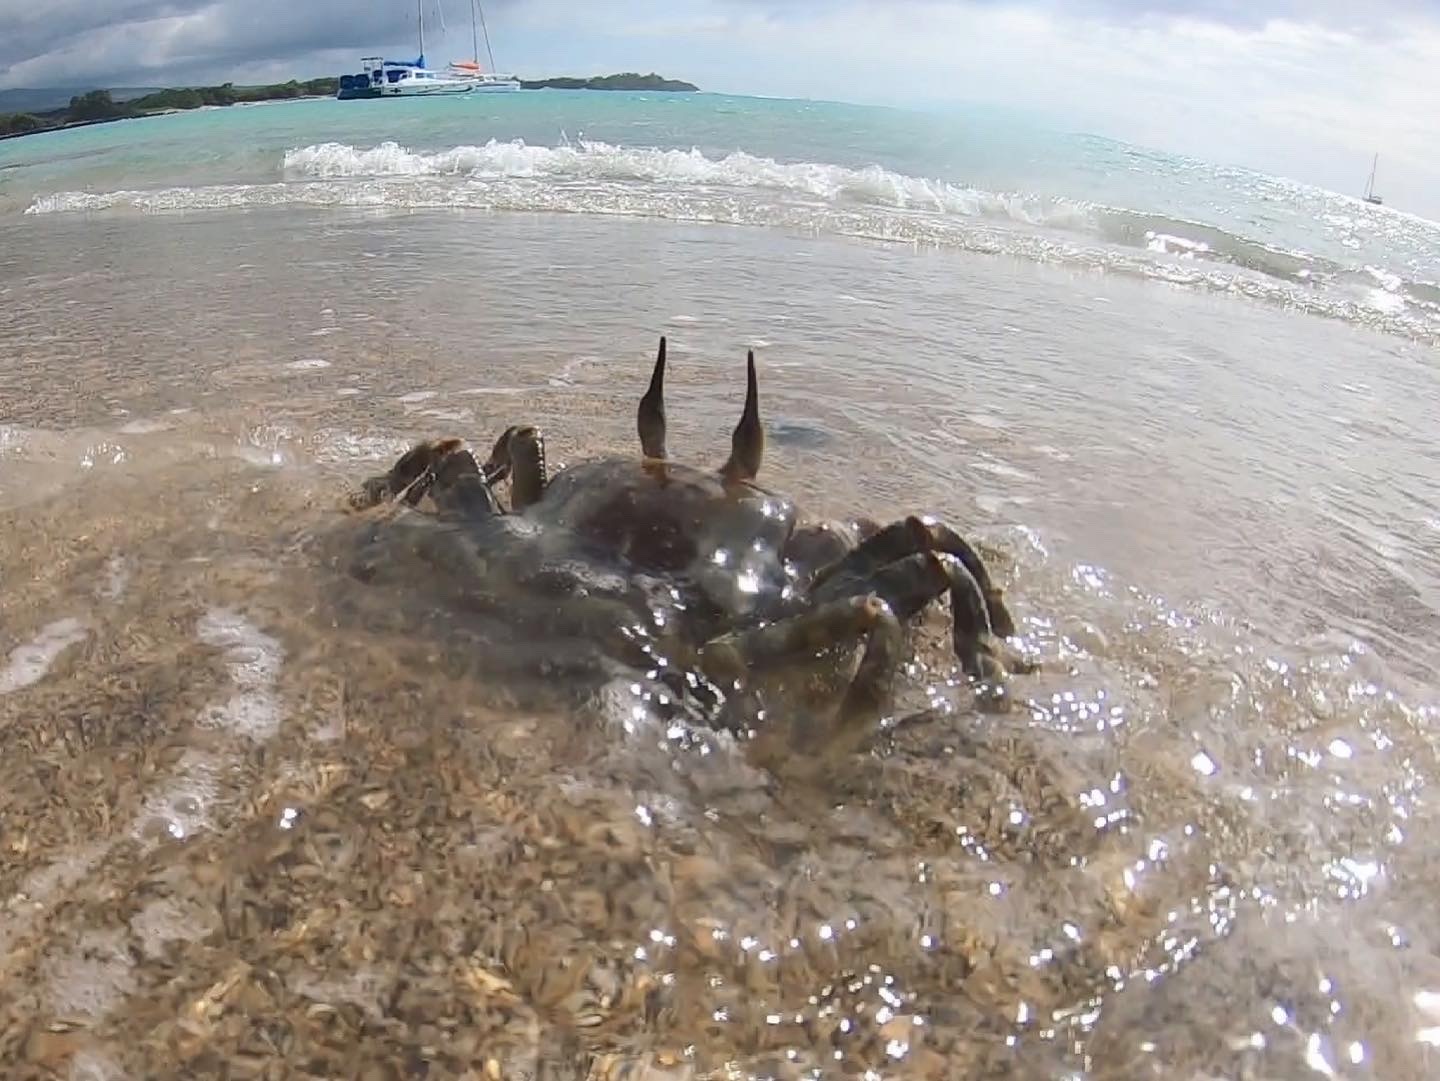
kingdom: Animalia
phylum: Arthropoda
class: Malacostraca
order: Decapoda
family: Ocypodidae
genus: Ocypode
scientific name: Ocypode ceratophthalmus
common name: Indo-pacific ghost crab
